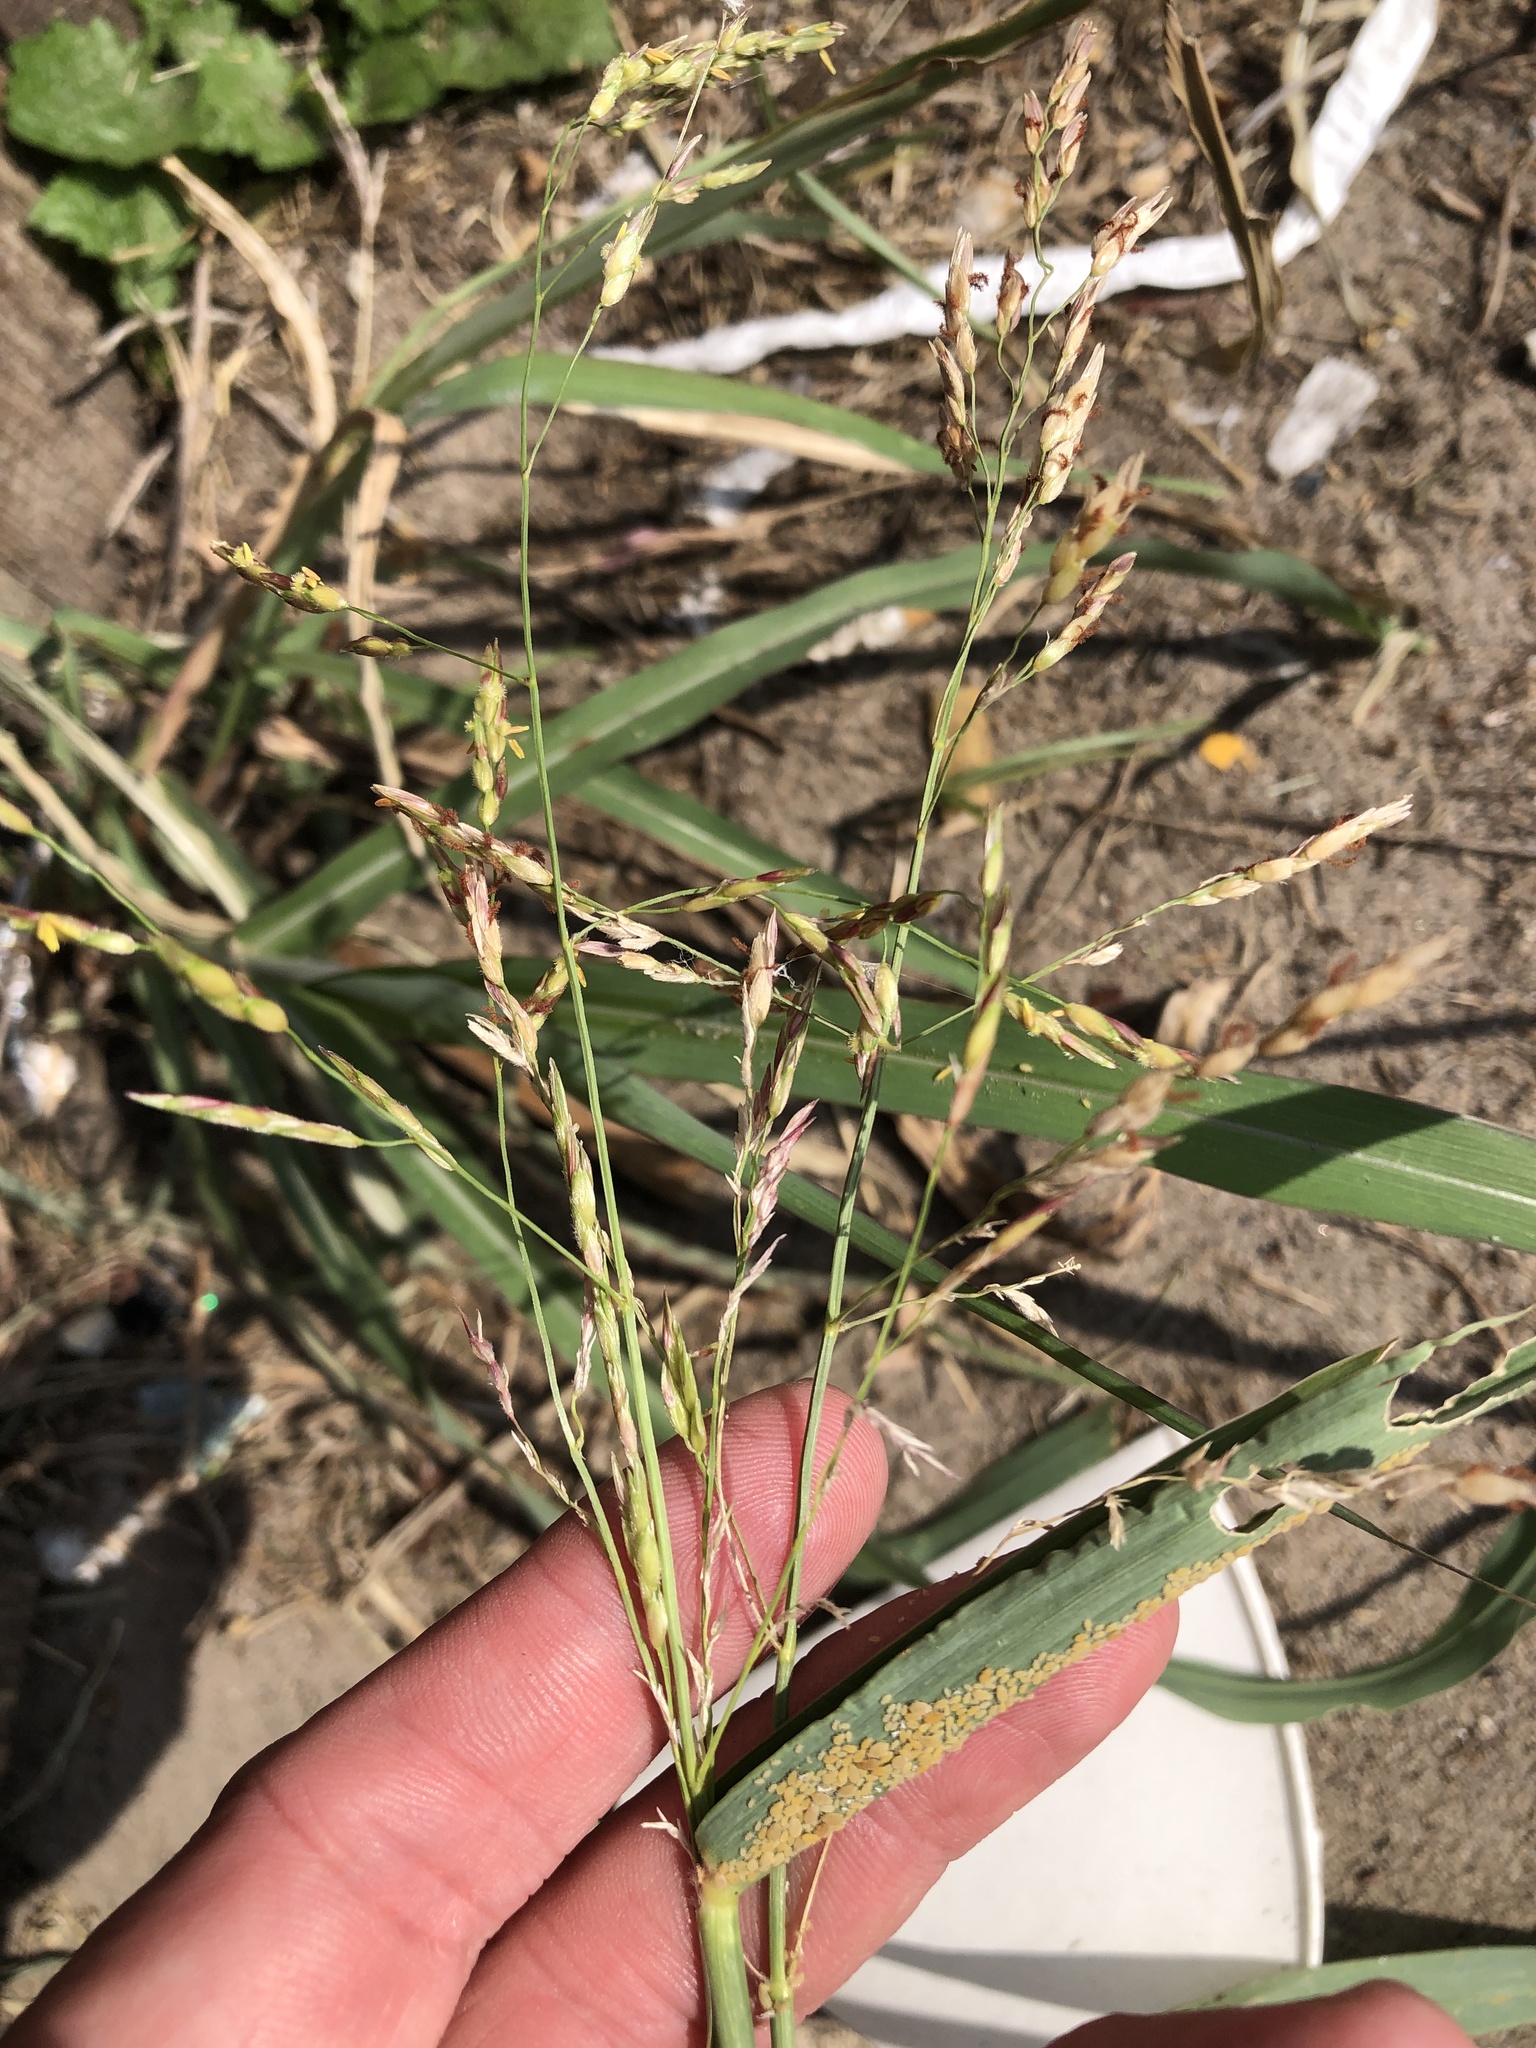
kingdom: Plantae
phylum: Tracheophyta
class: Liliopsida
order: Poales
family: Poaceae
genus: Sorghum
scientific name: Sorghum halepense
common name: Johnson-grass
